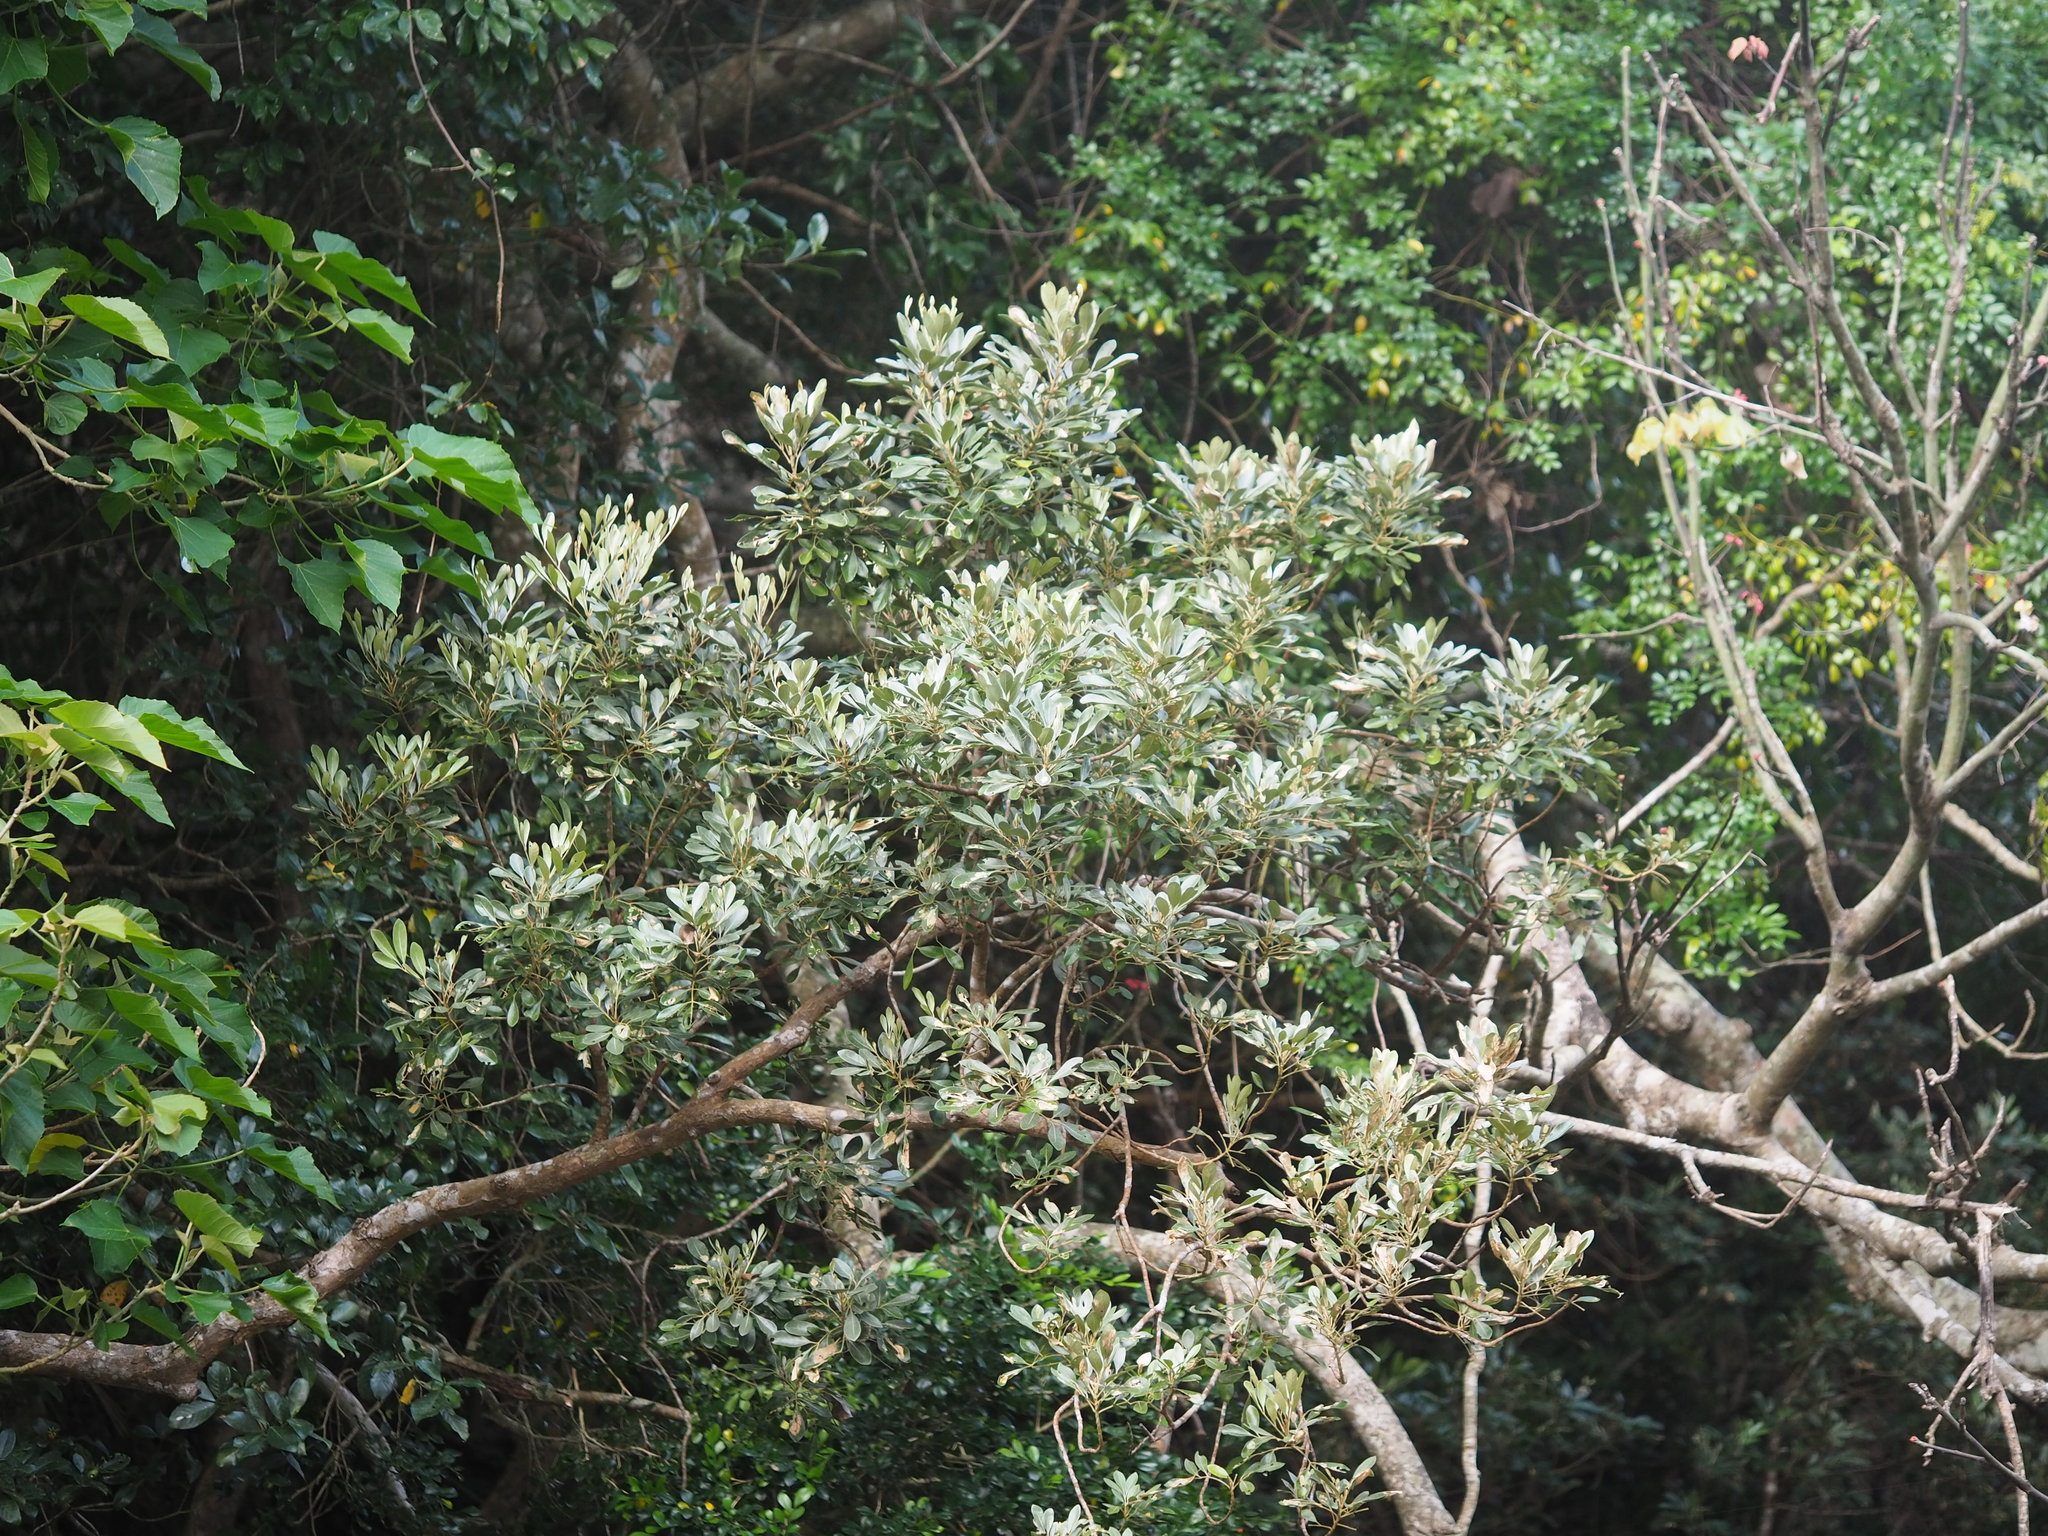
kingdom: Plantae
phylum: Tracheophyta
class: Magnoliopsida
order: Sapindales
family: Meliaceae
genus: Aglaia
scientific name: Aglaia elaeagnoidea
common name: Droopyleaf
